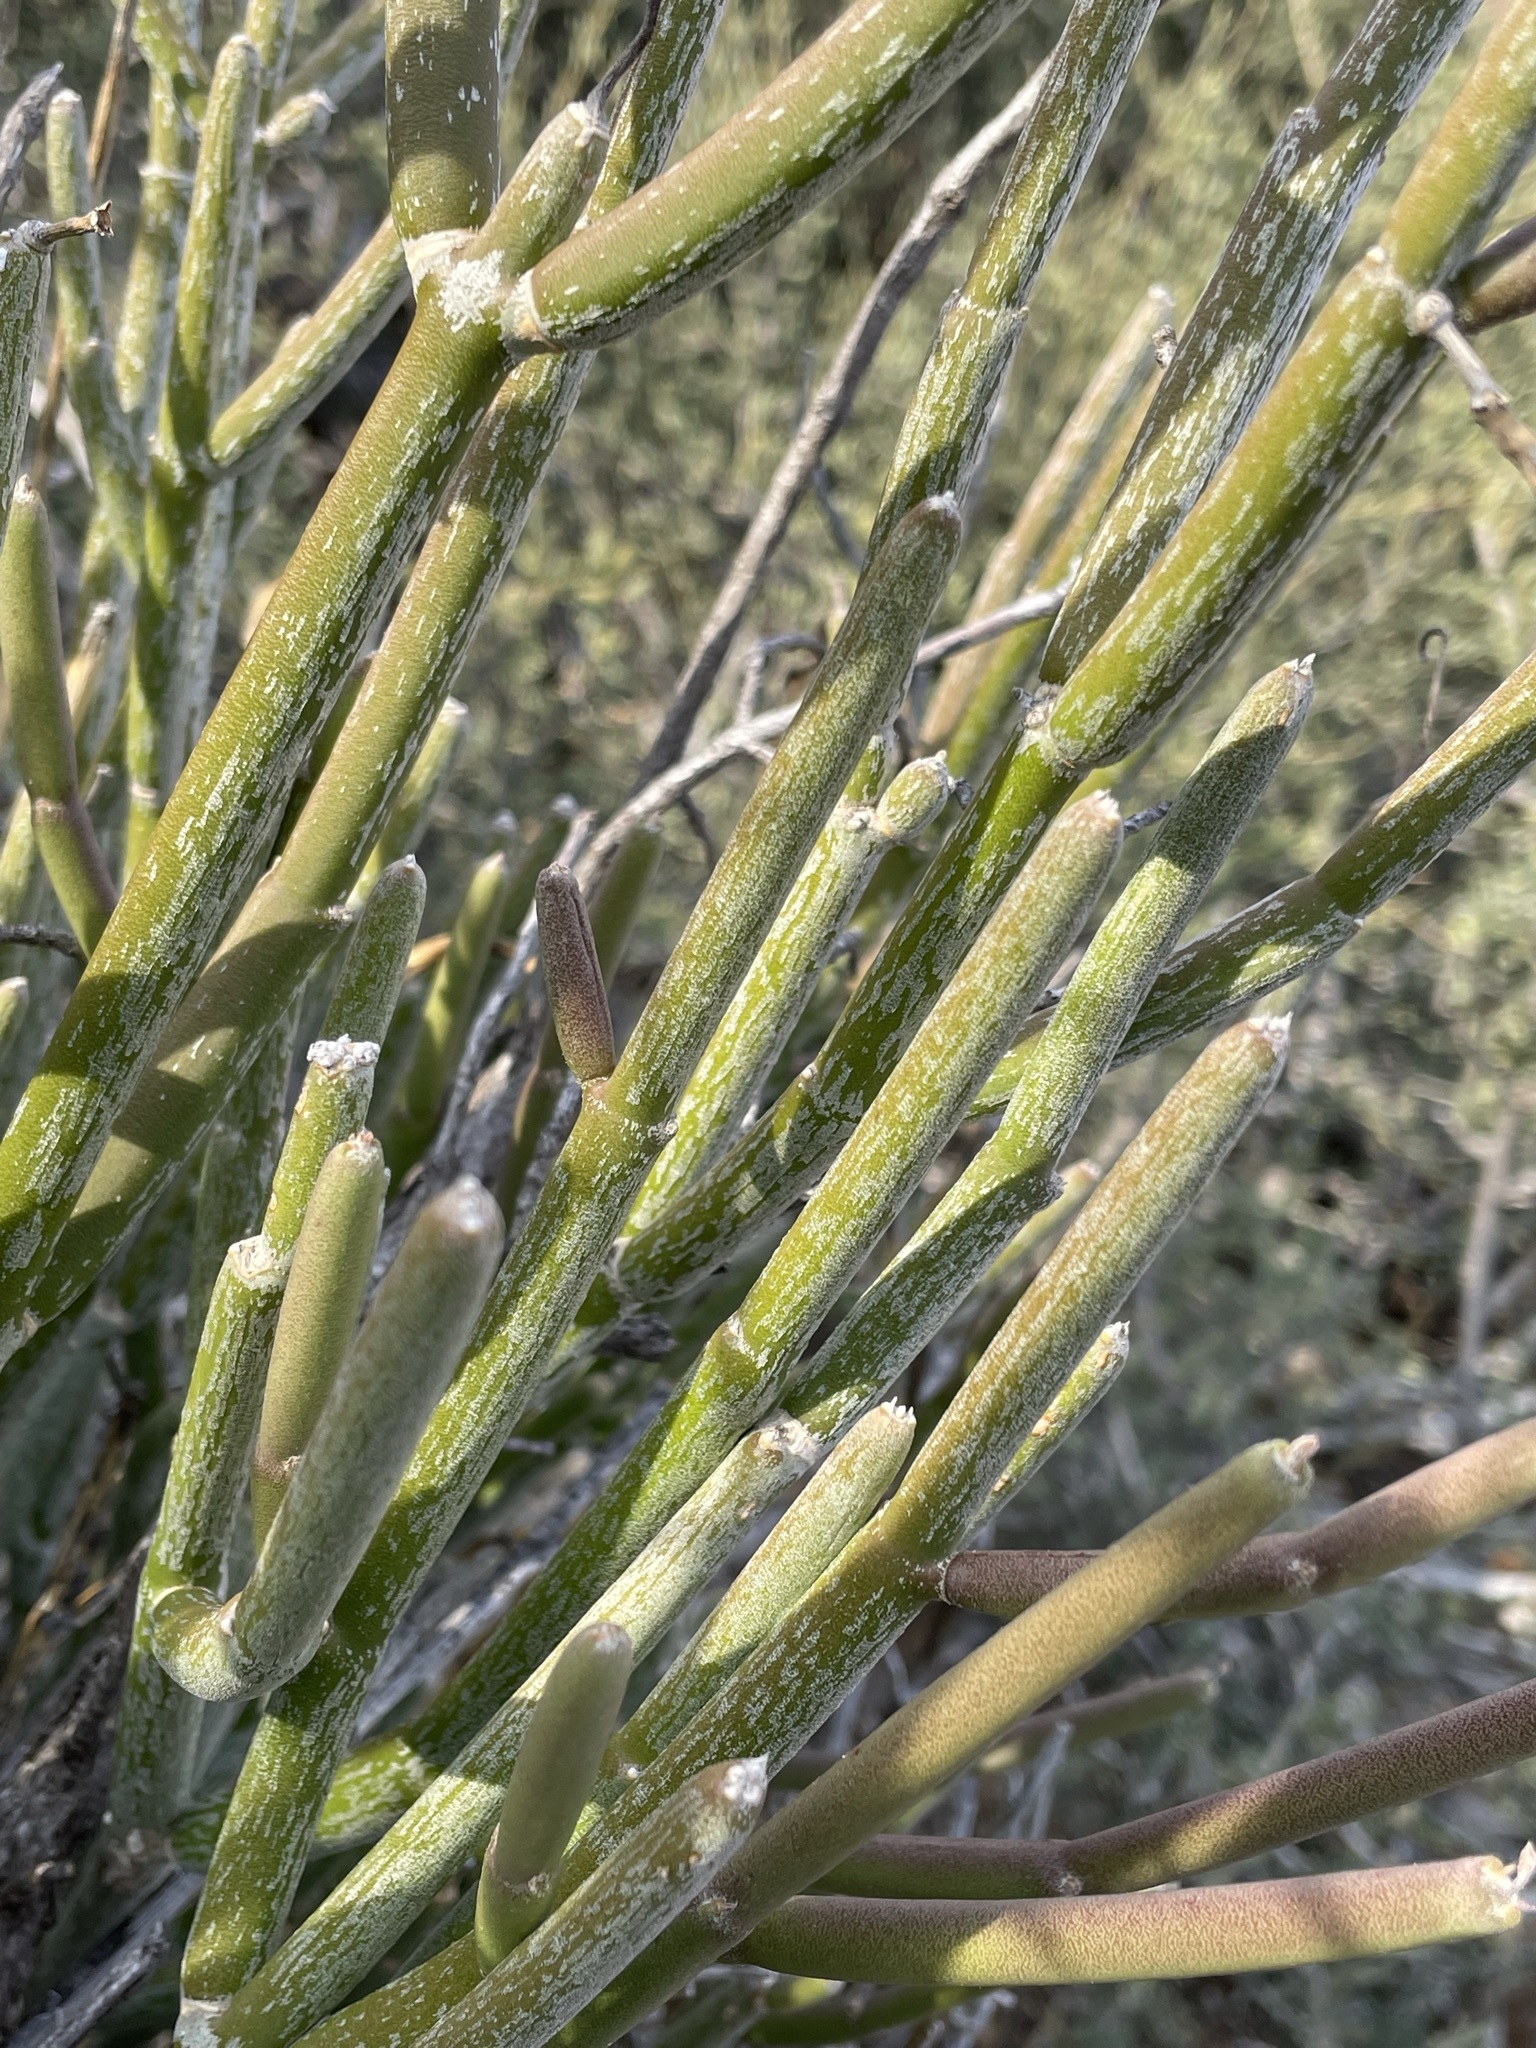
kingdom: Plantae
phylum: Tracheophyta
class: Magnoliopsida
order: Gentianales
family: Apocynaceae
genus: Cynanchum
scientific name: Cynanchum viminale
